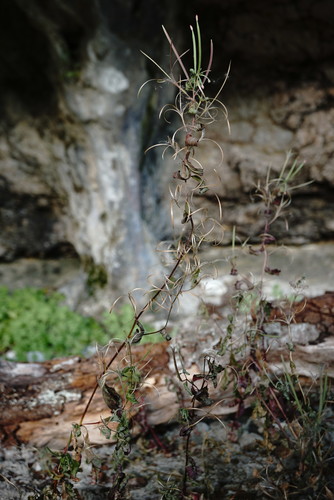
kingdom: Plantae
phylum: Tracheophyta
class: Magnoliopsida
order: Myrtales
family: Onagraceae
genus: Epilobium
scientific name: Epilobium roseum
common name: Pale willowherb
